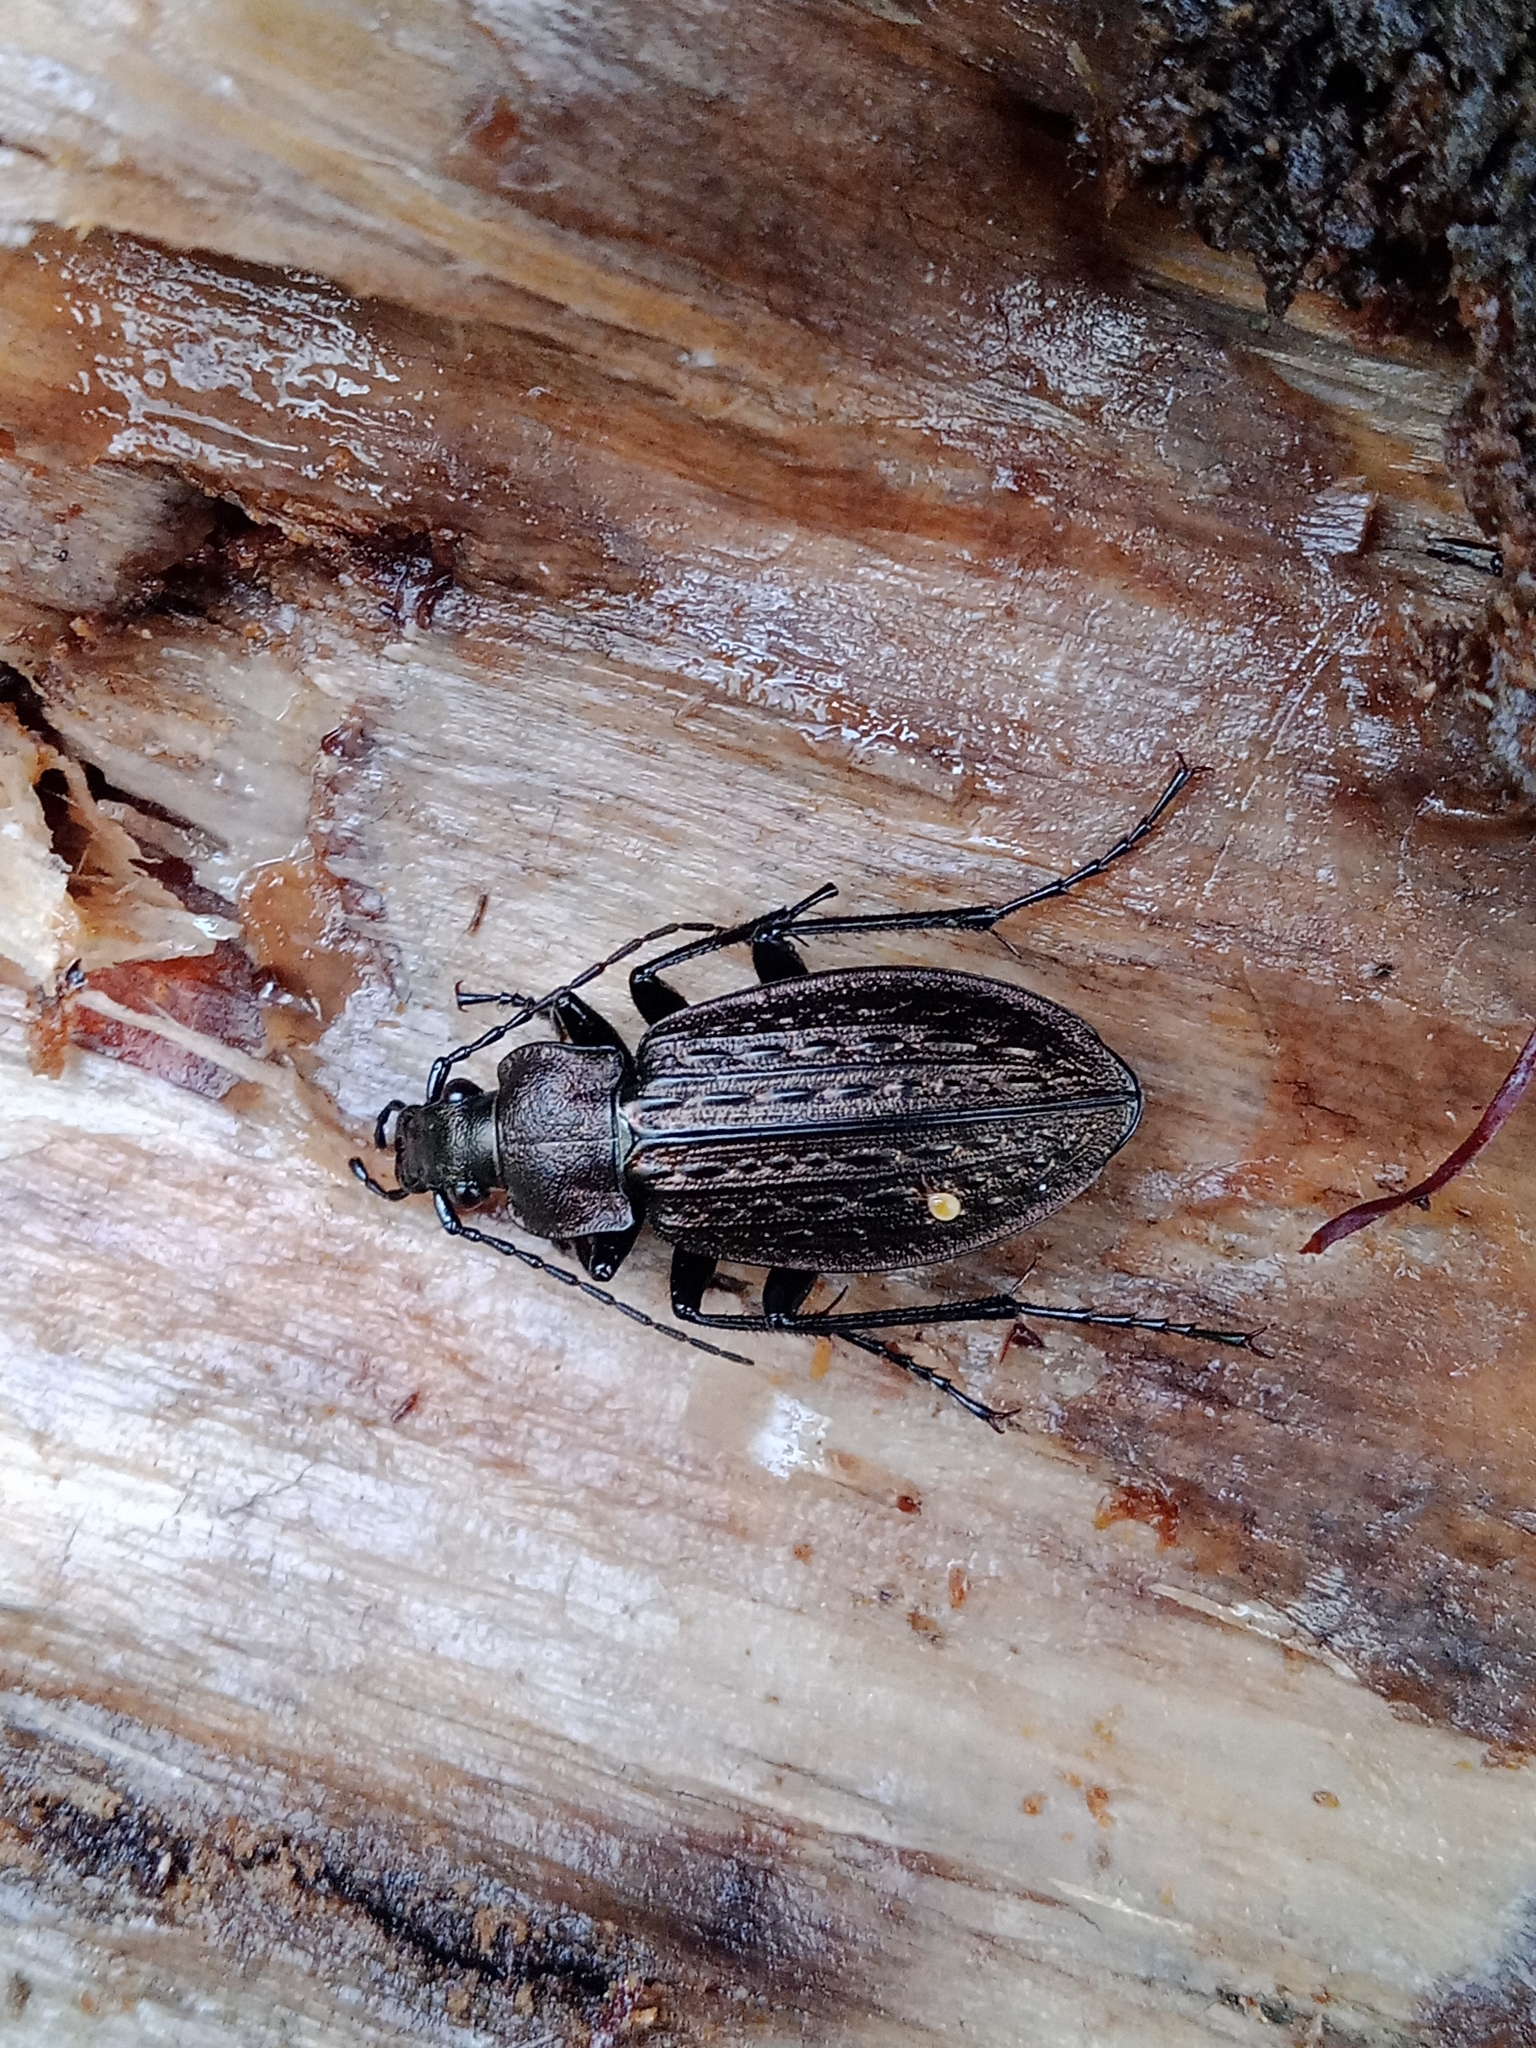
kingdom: Animalia
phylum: Arthropoda
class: Insecta
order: Coleoptera
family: Carabidae
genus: Carabus
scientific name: Carabus granulatus
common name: Granulate ground beetle
